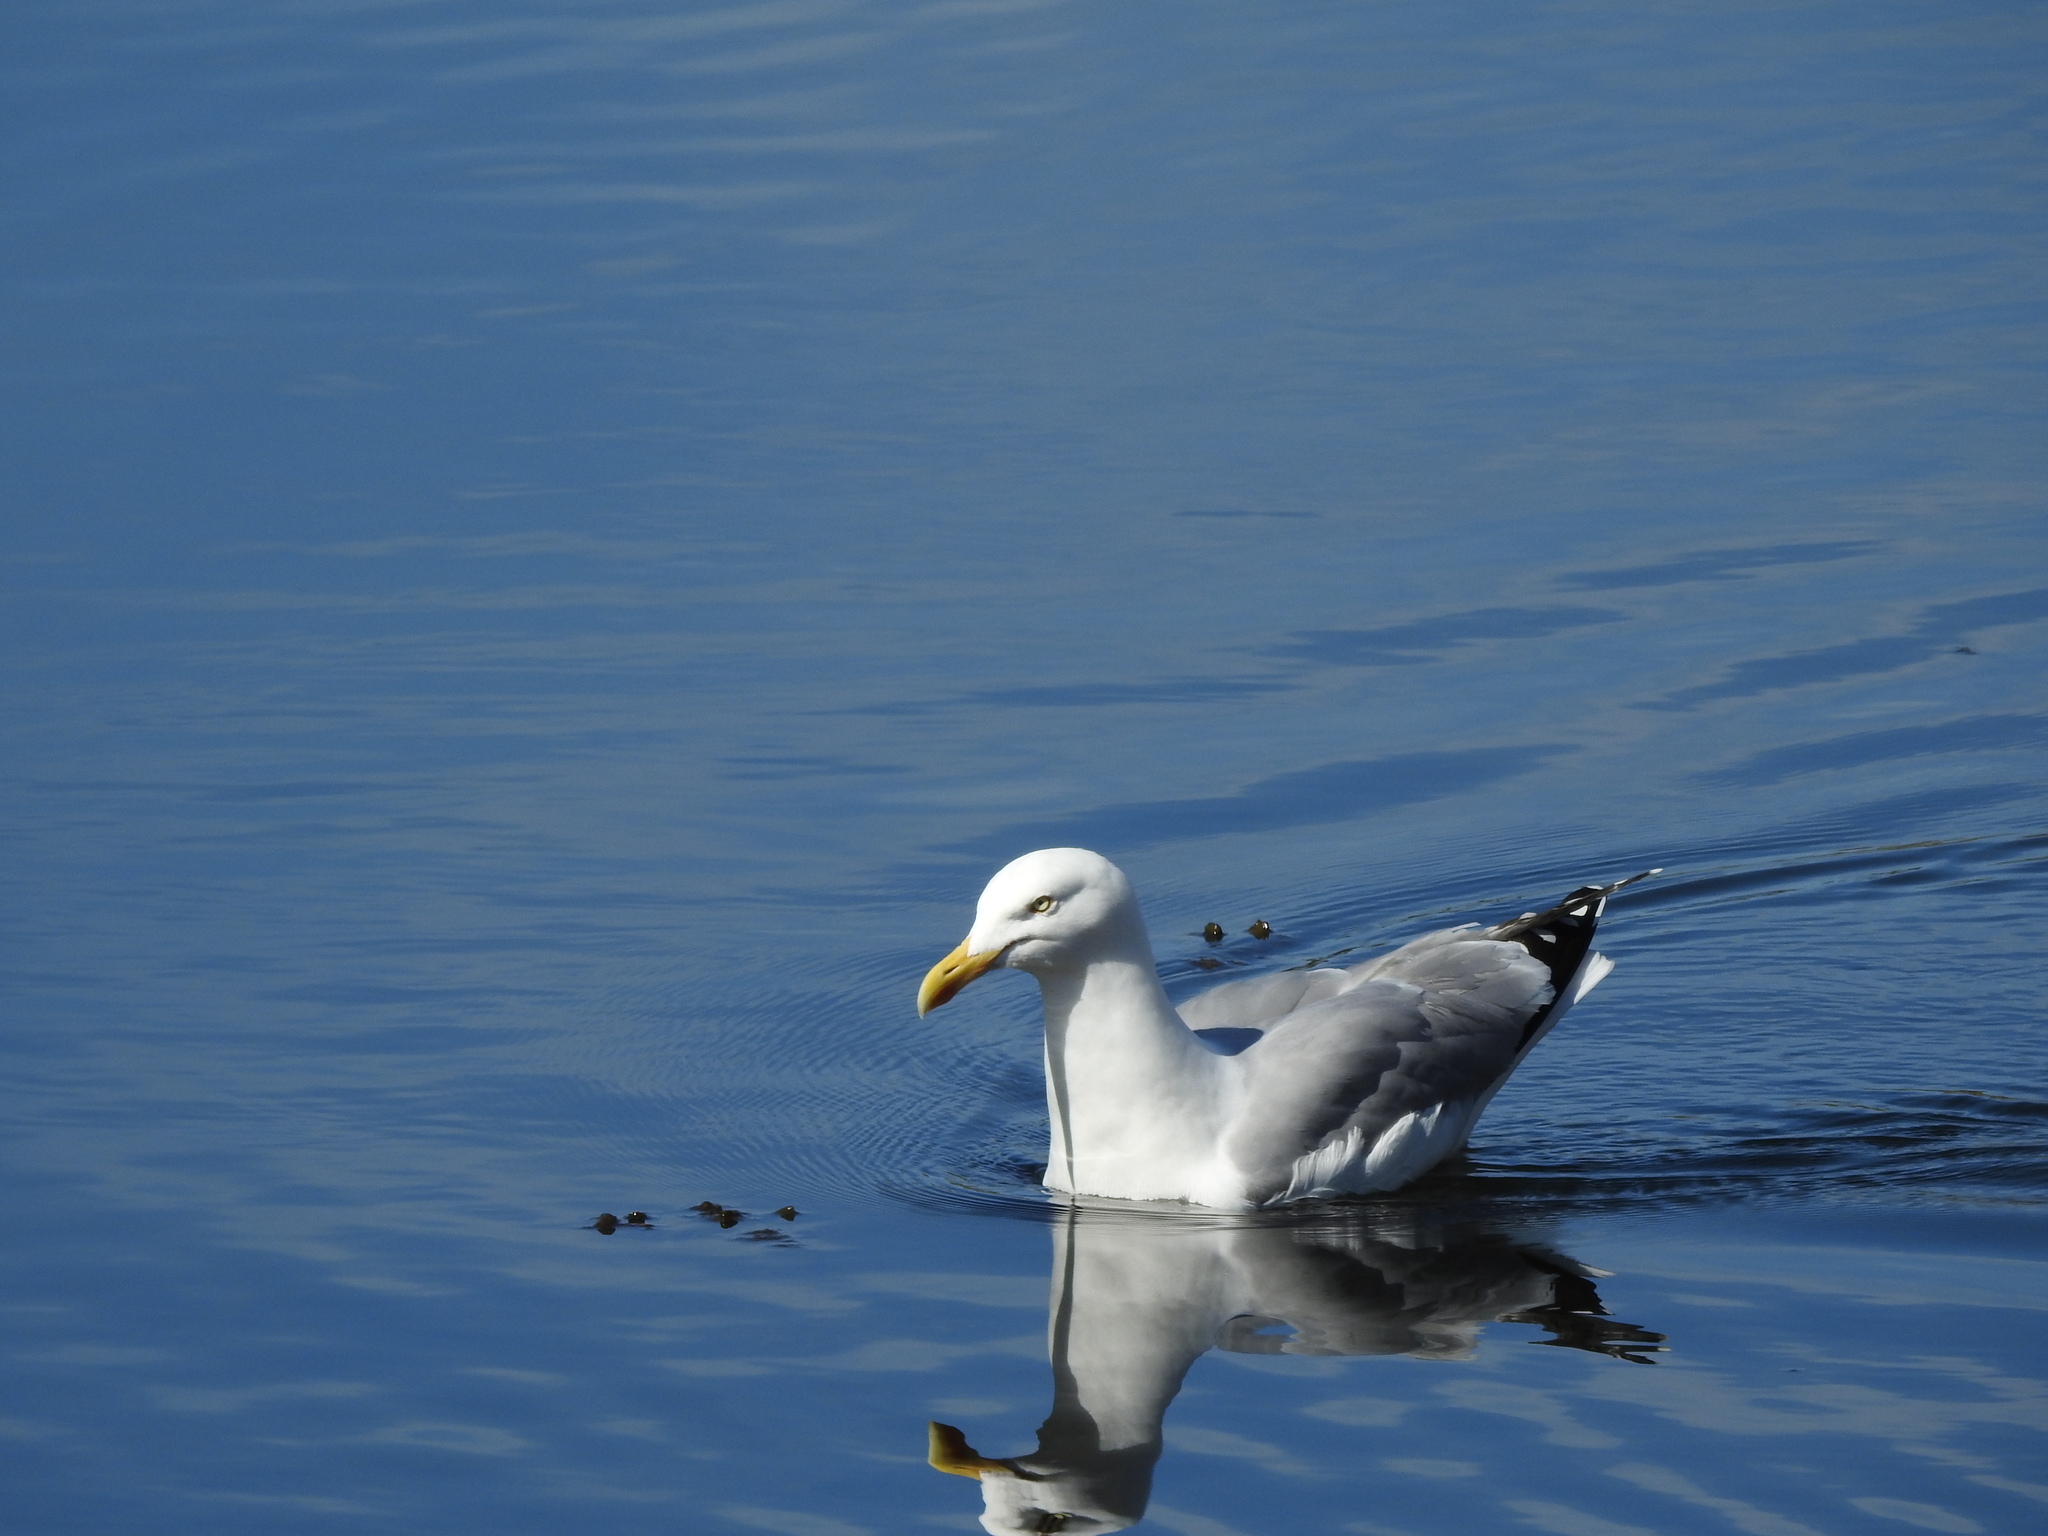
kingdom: Animalia
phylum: Chordata
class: Aves
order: Charadriiformes
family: Laridae
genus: Larus
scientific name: Larus argentatus
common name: Herring gull
